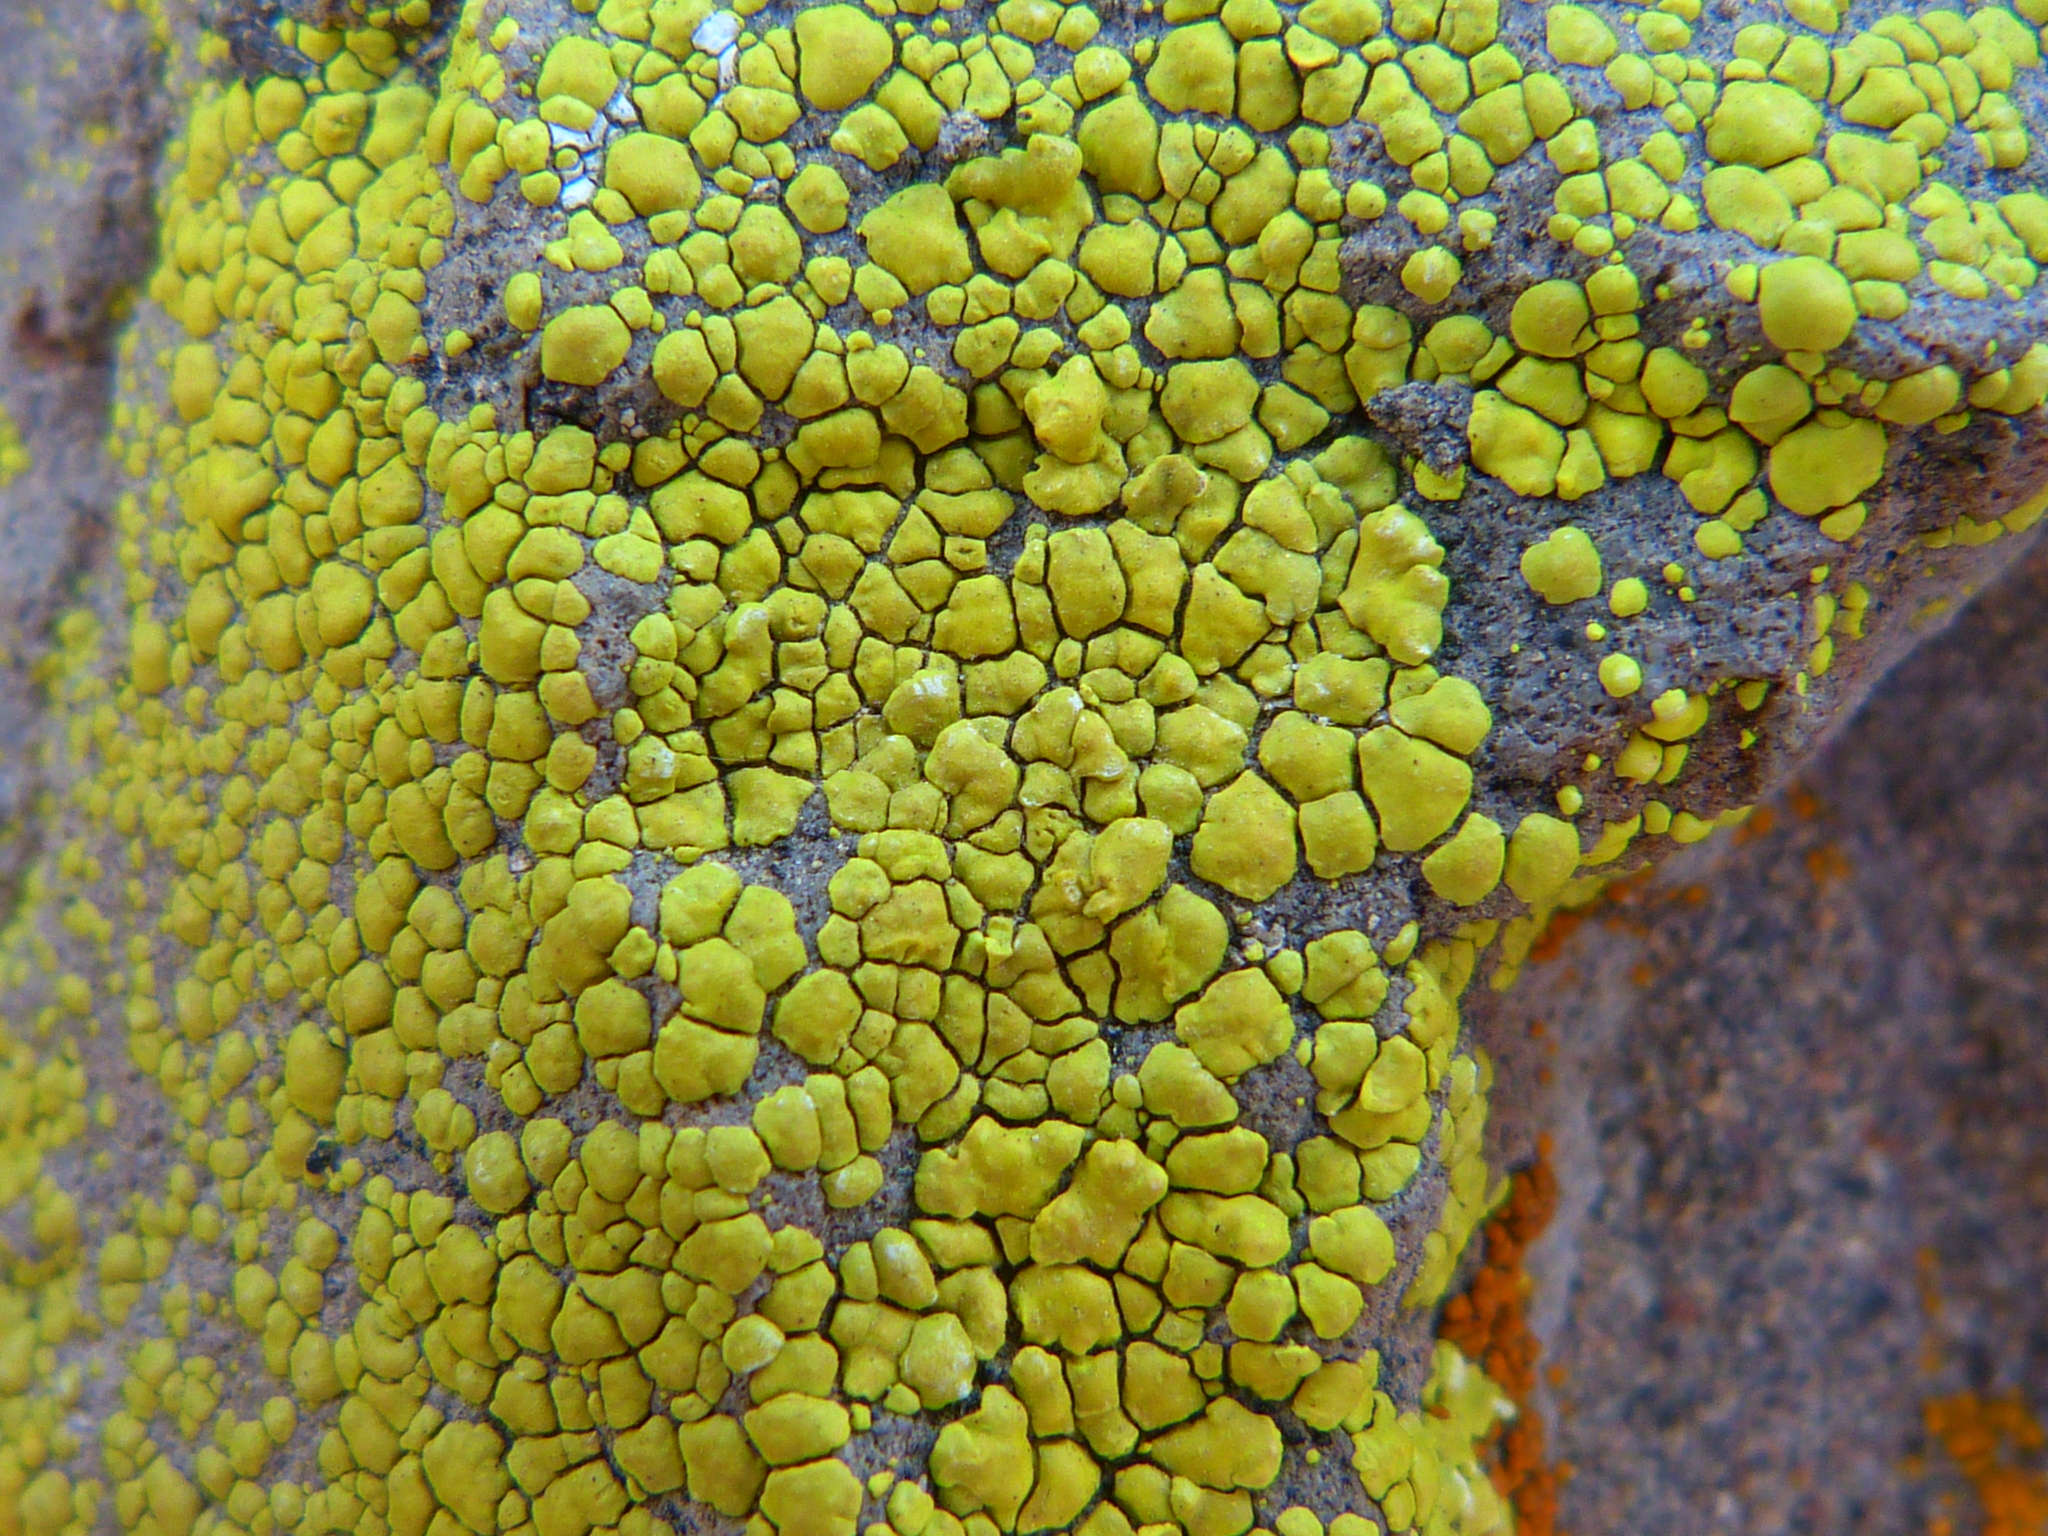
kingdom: Fungi
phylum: Ascomycota
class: Lecanoromycetes
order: Acarosporales
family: Acarosporaceae
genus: Acarospora
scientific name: Acarospora socialis
